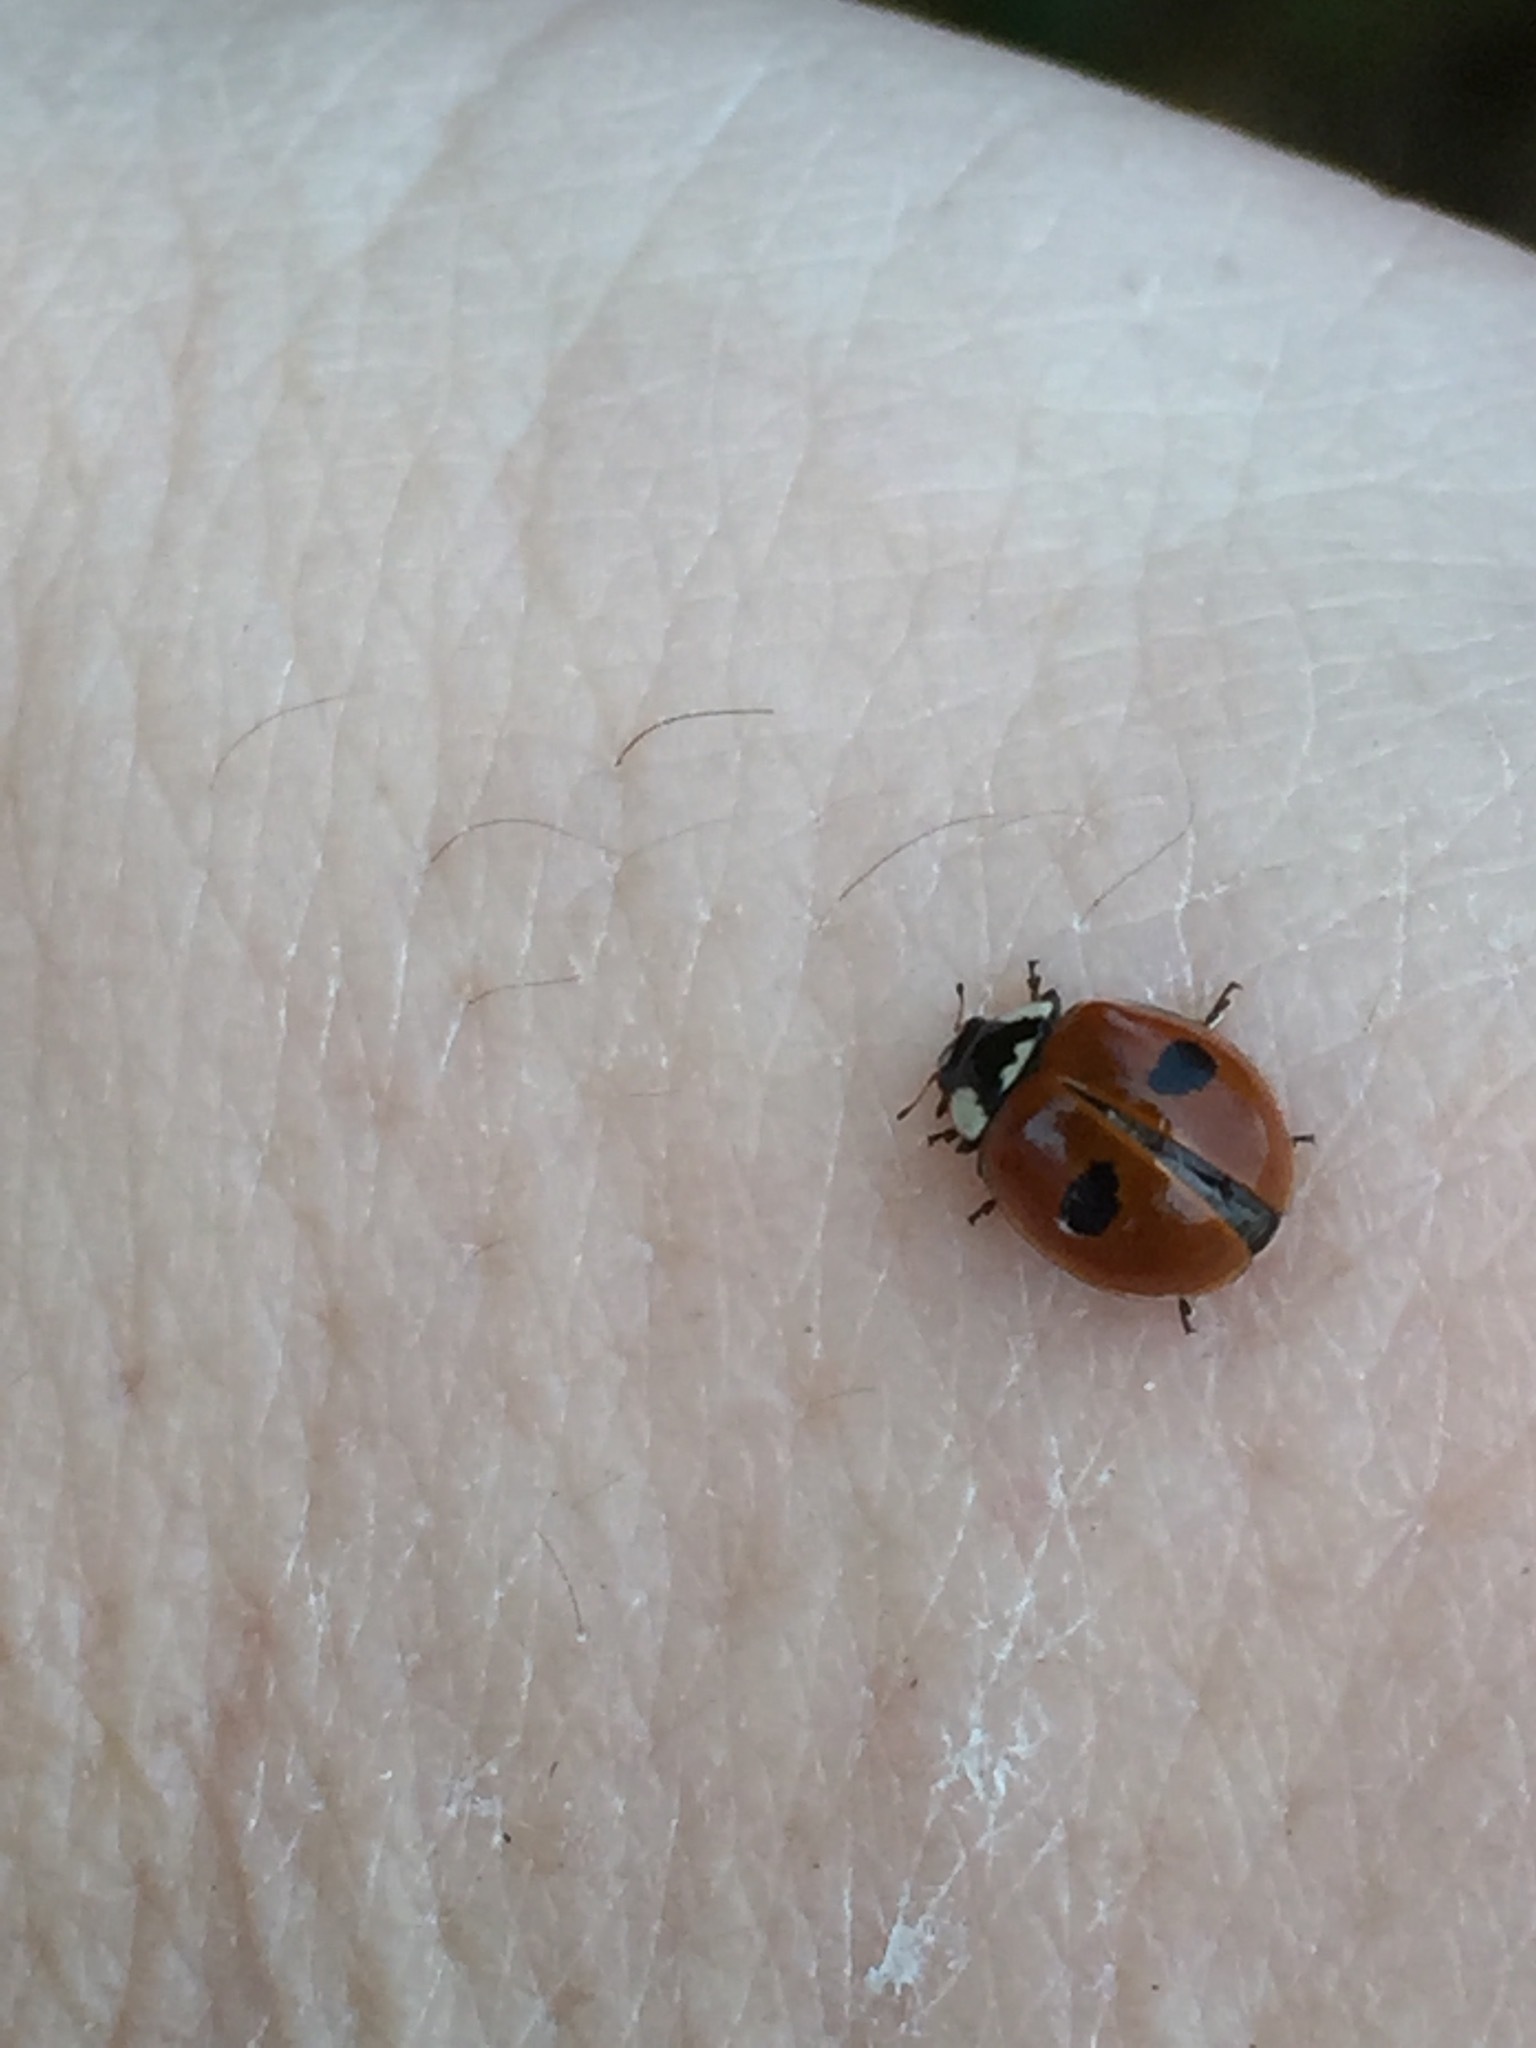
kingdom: Animalia
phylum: Arthropoda
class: Insecta
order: Coleoptera
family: Coccinellidae
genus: Adalia
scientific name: Adalia bipunctata
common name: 2-spot ladybird
